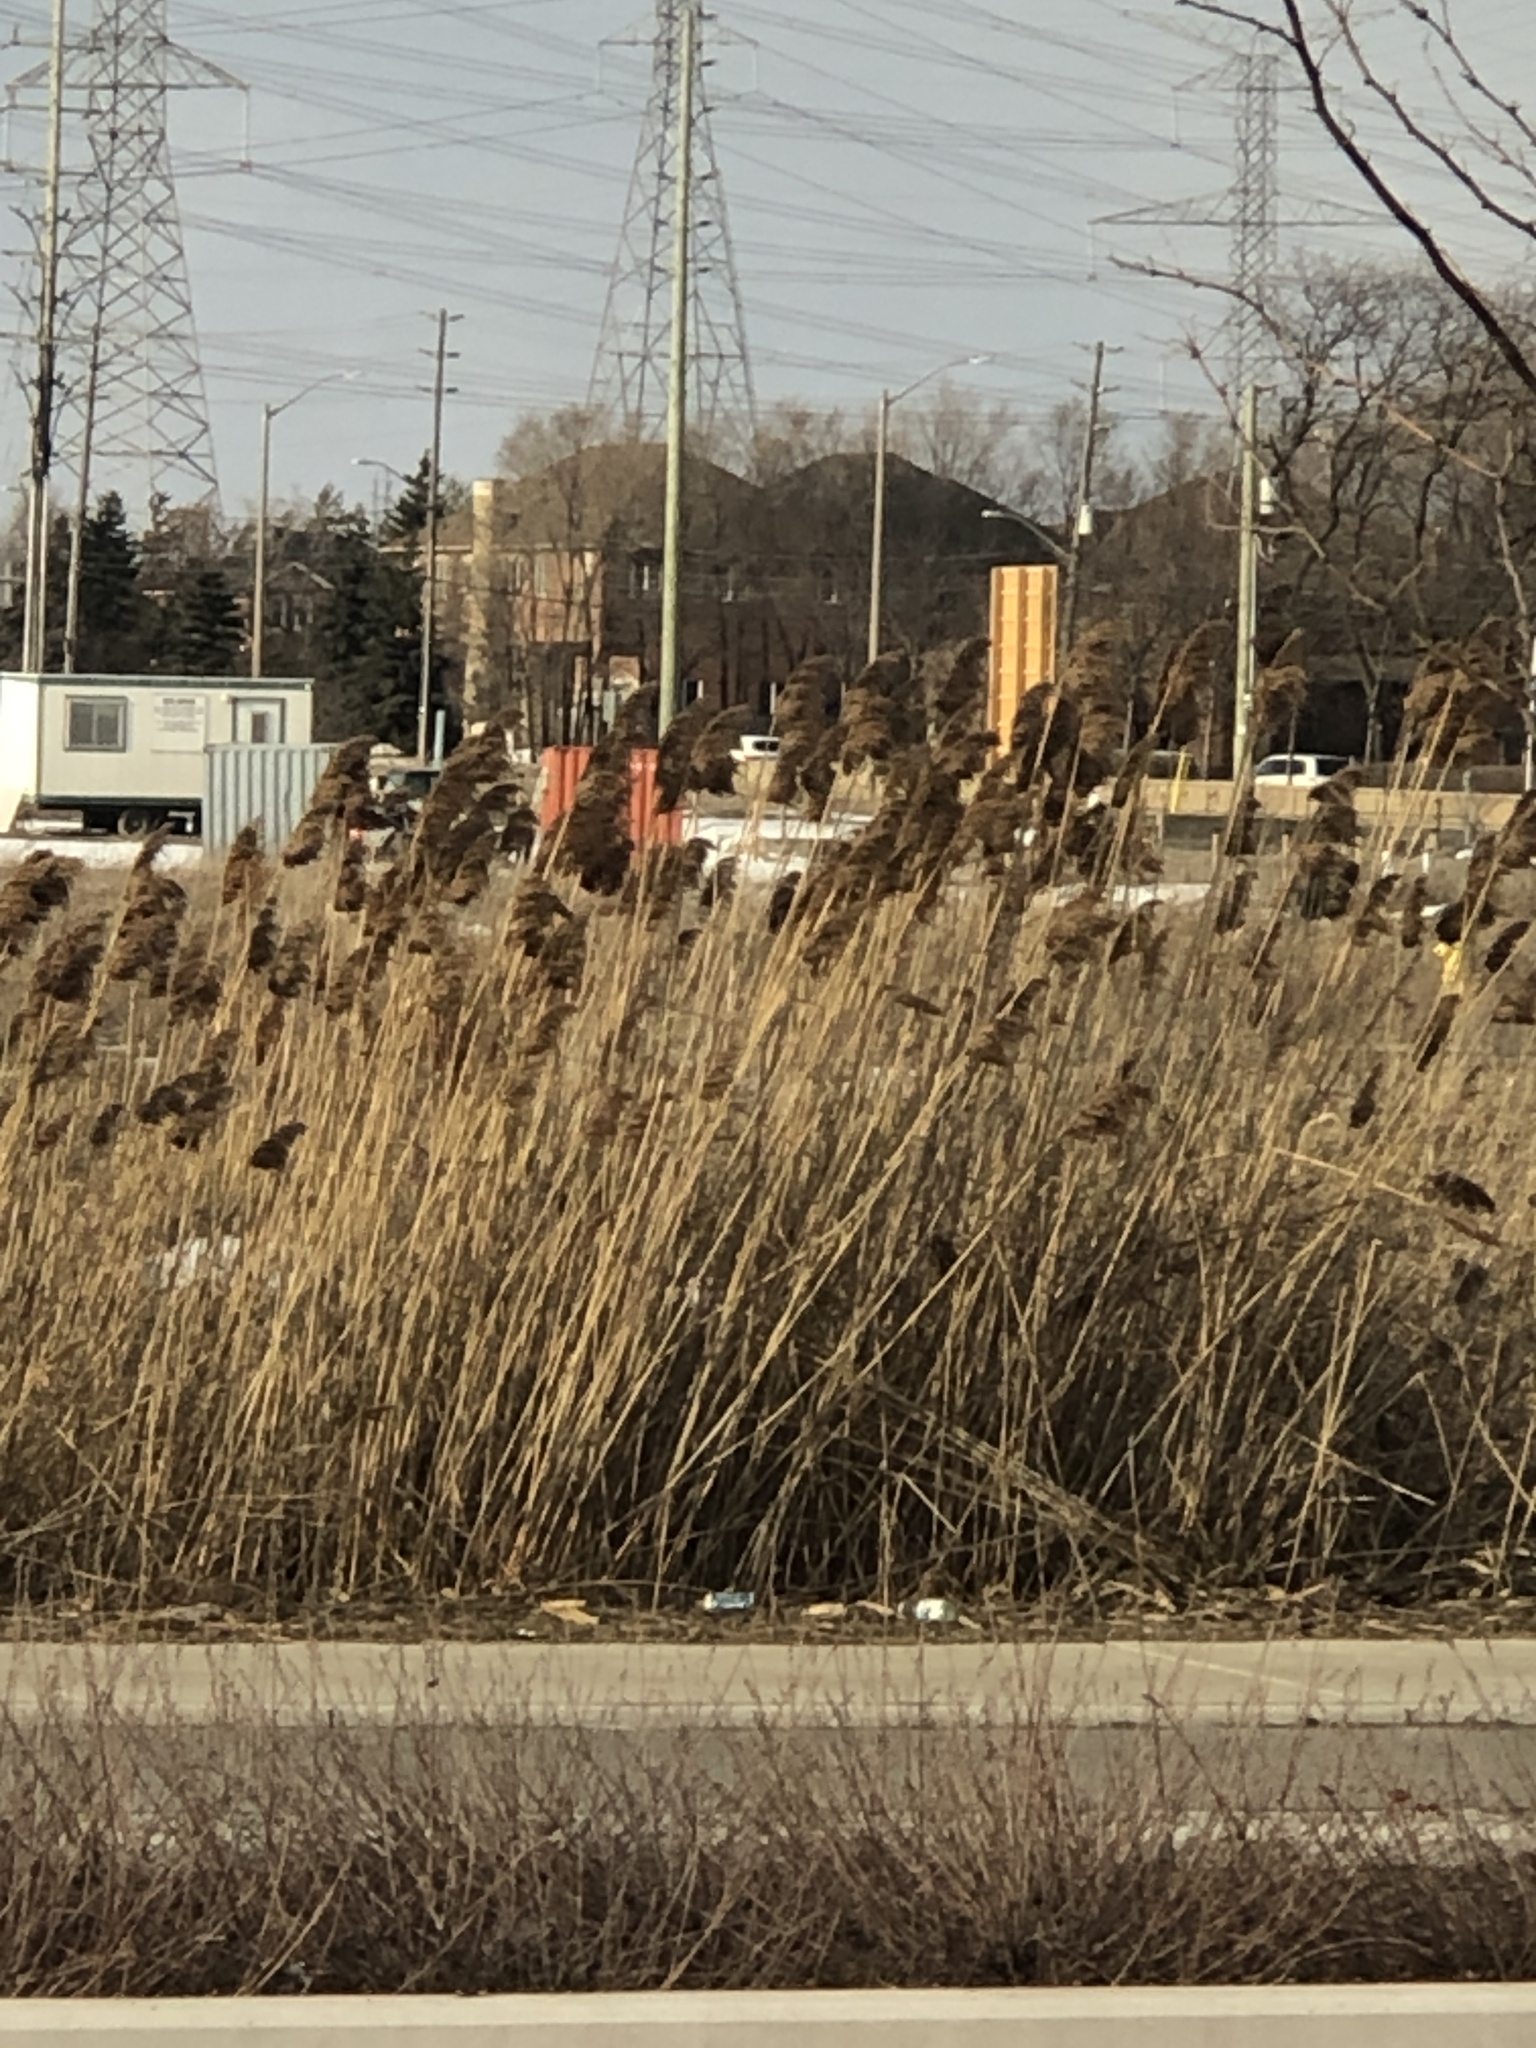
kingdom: Plantae
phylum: Tracheophyta
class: Liliopsida
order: Poales
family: Poaceae
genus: Phragmites
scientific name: Phragmites australis
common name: Common reed
